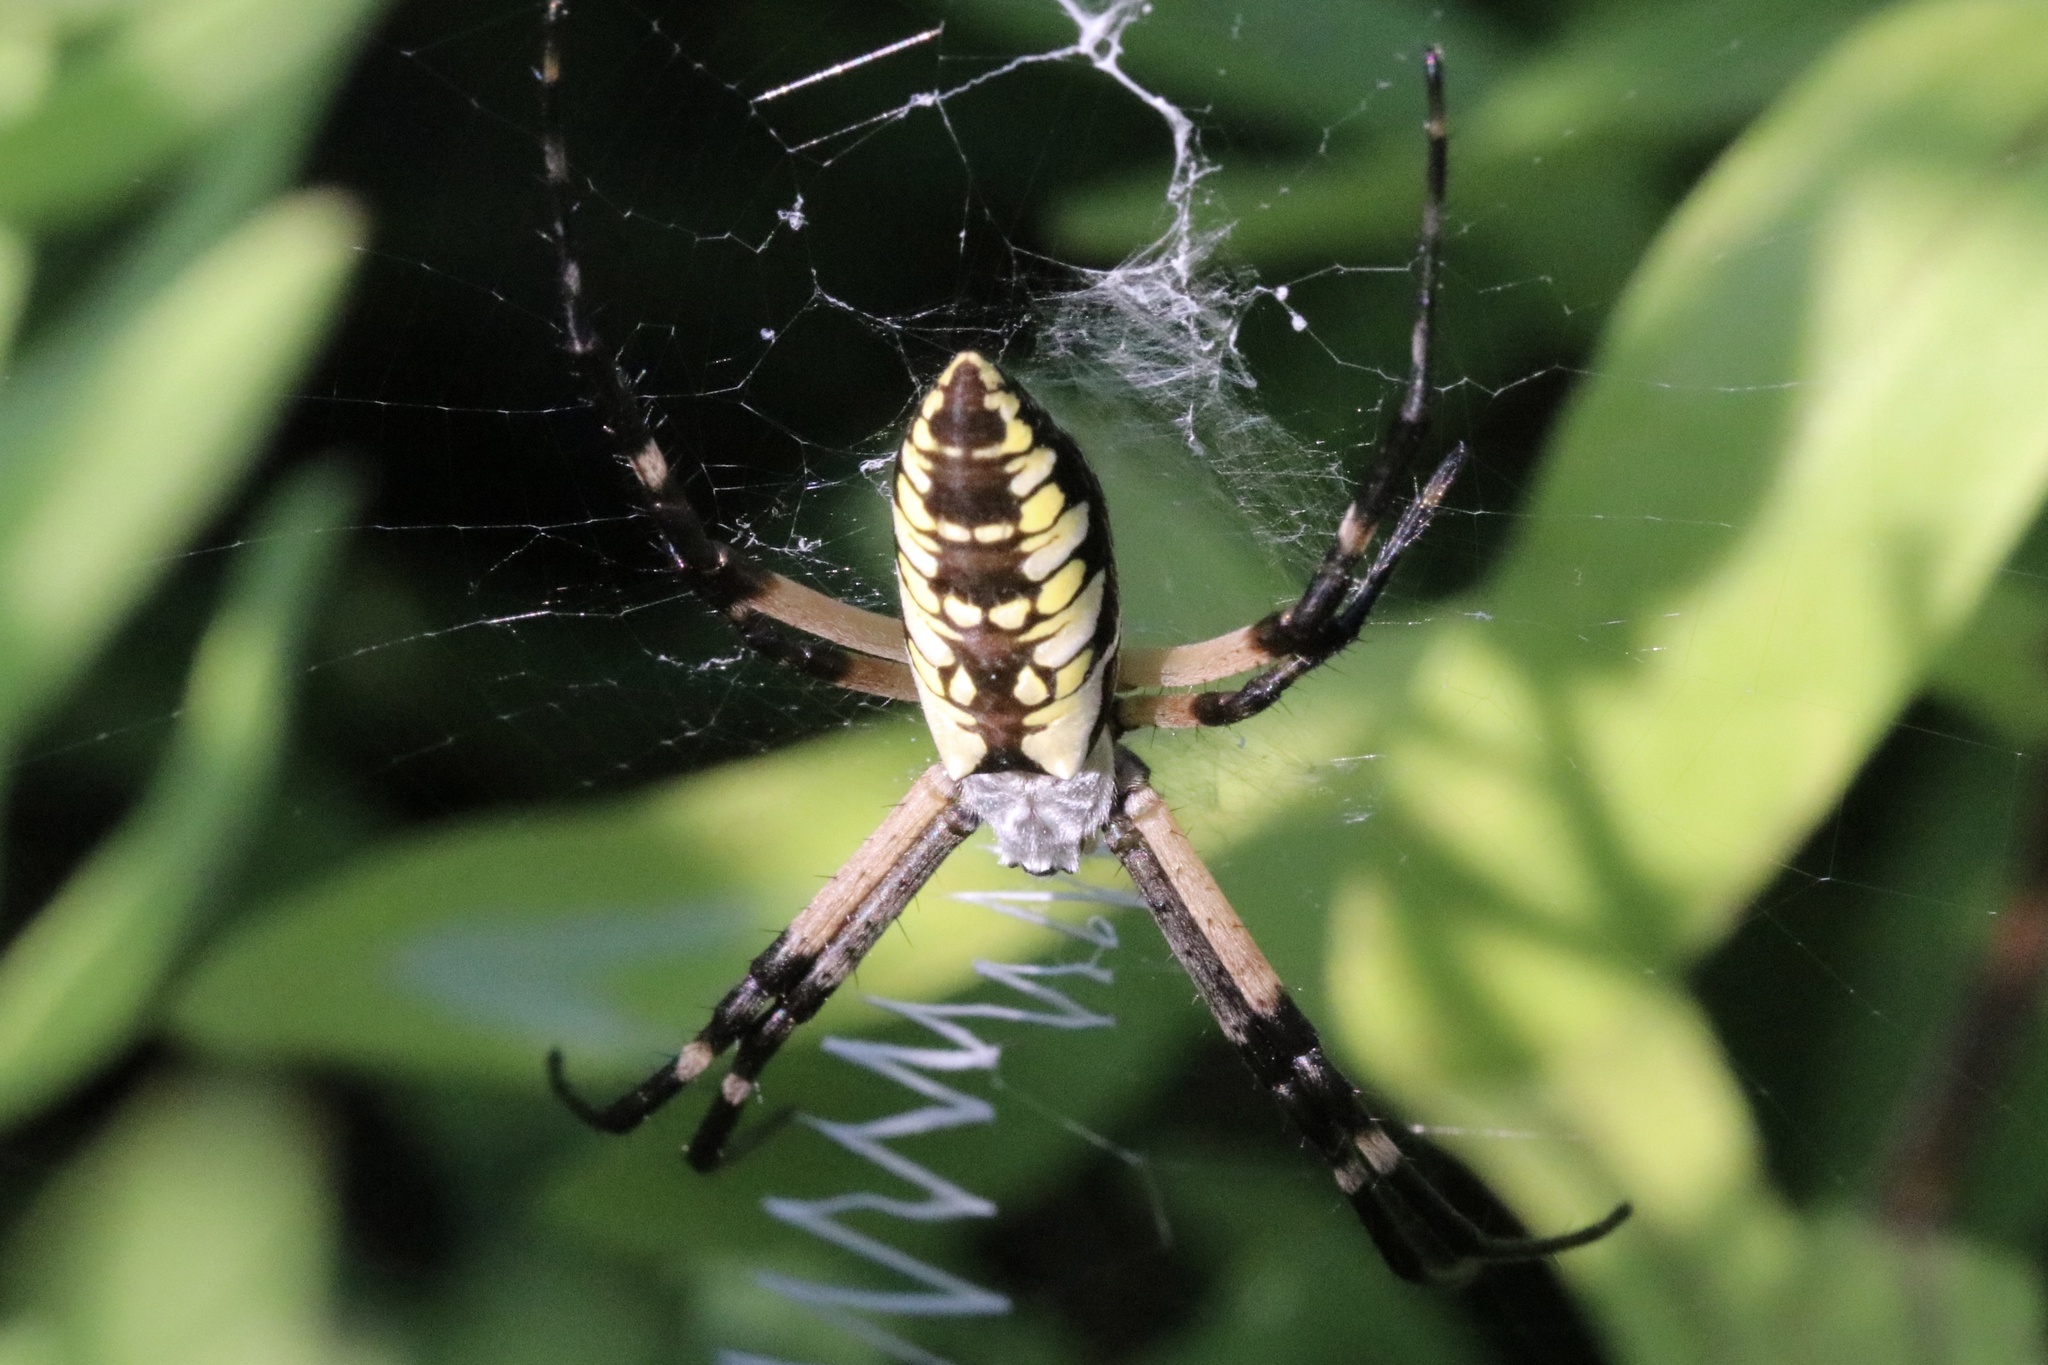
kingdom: Animalia
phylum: Arthropoda
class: Arachnida
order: Araneae
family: Araneidae
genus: Argiope
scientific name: Argiope aurantia
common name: Orb weavers
